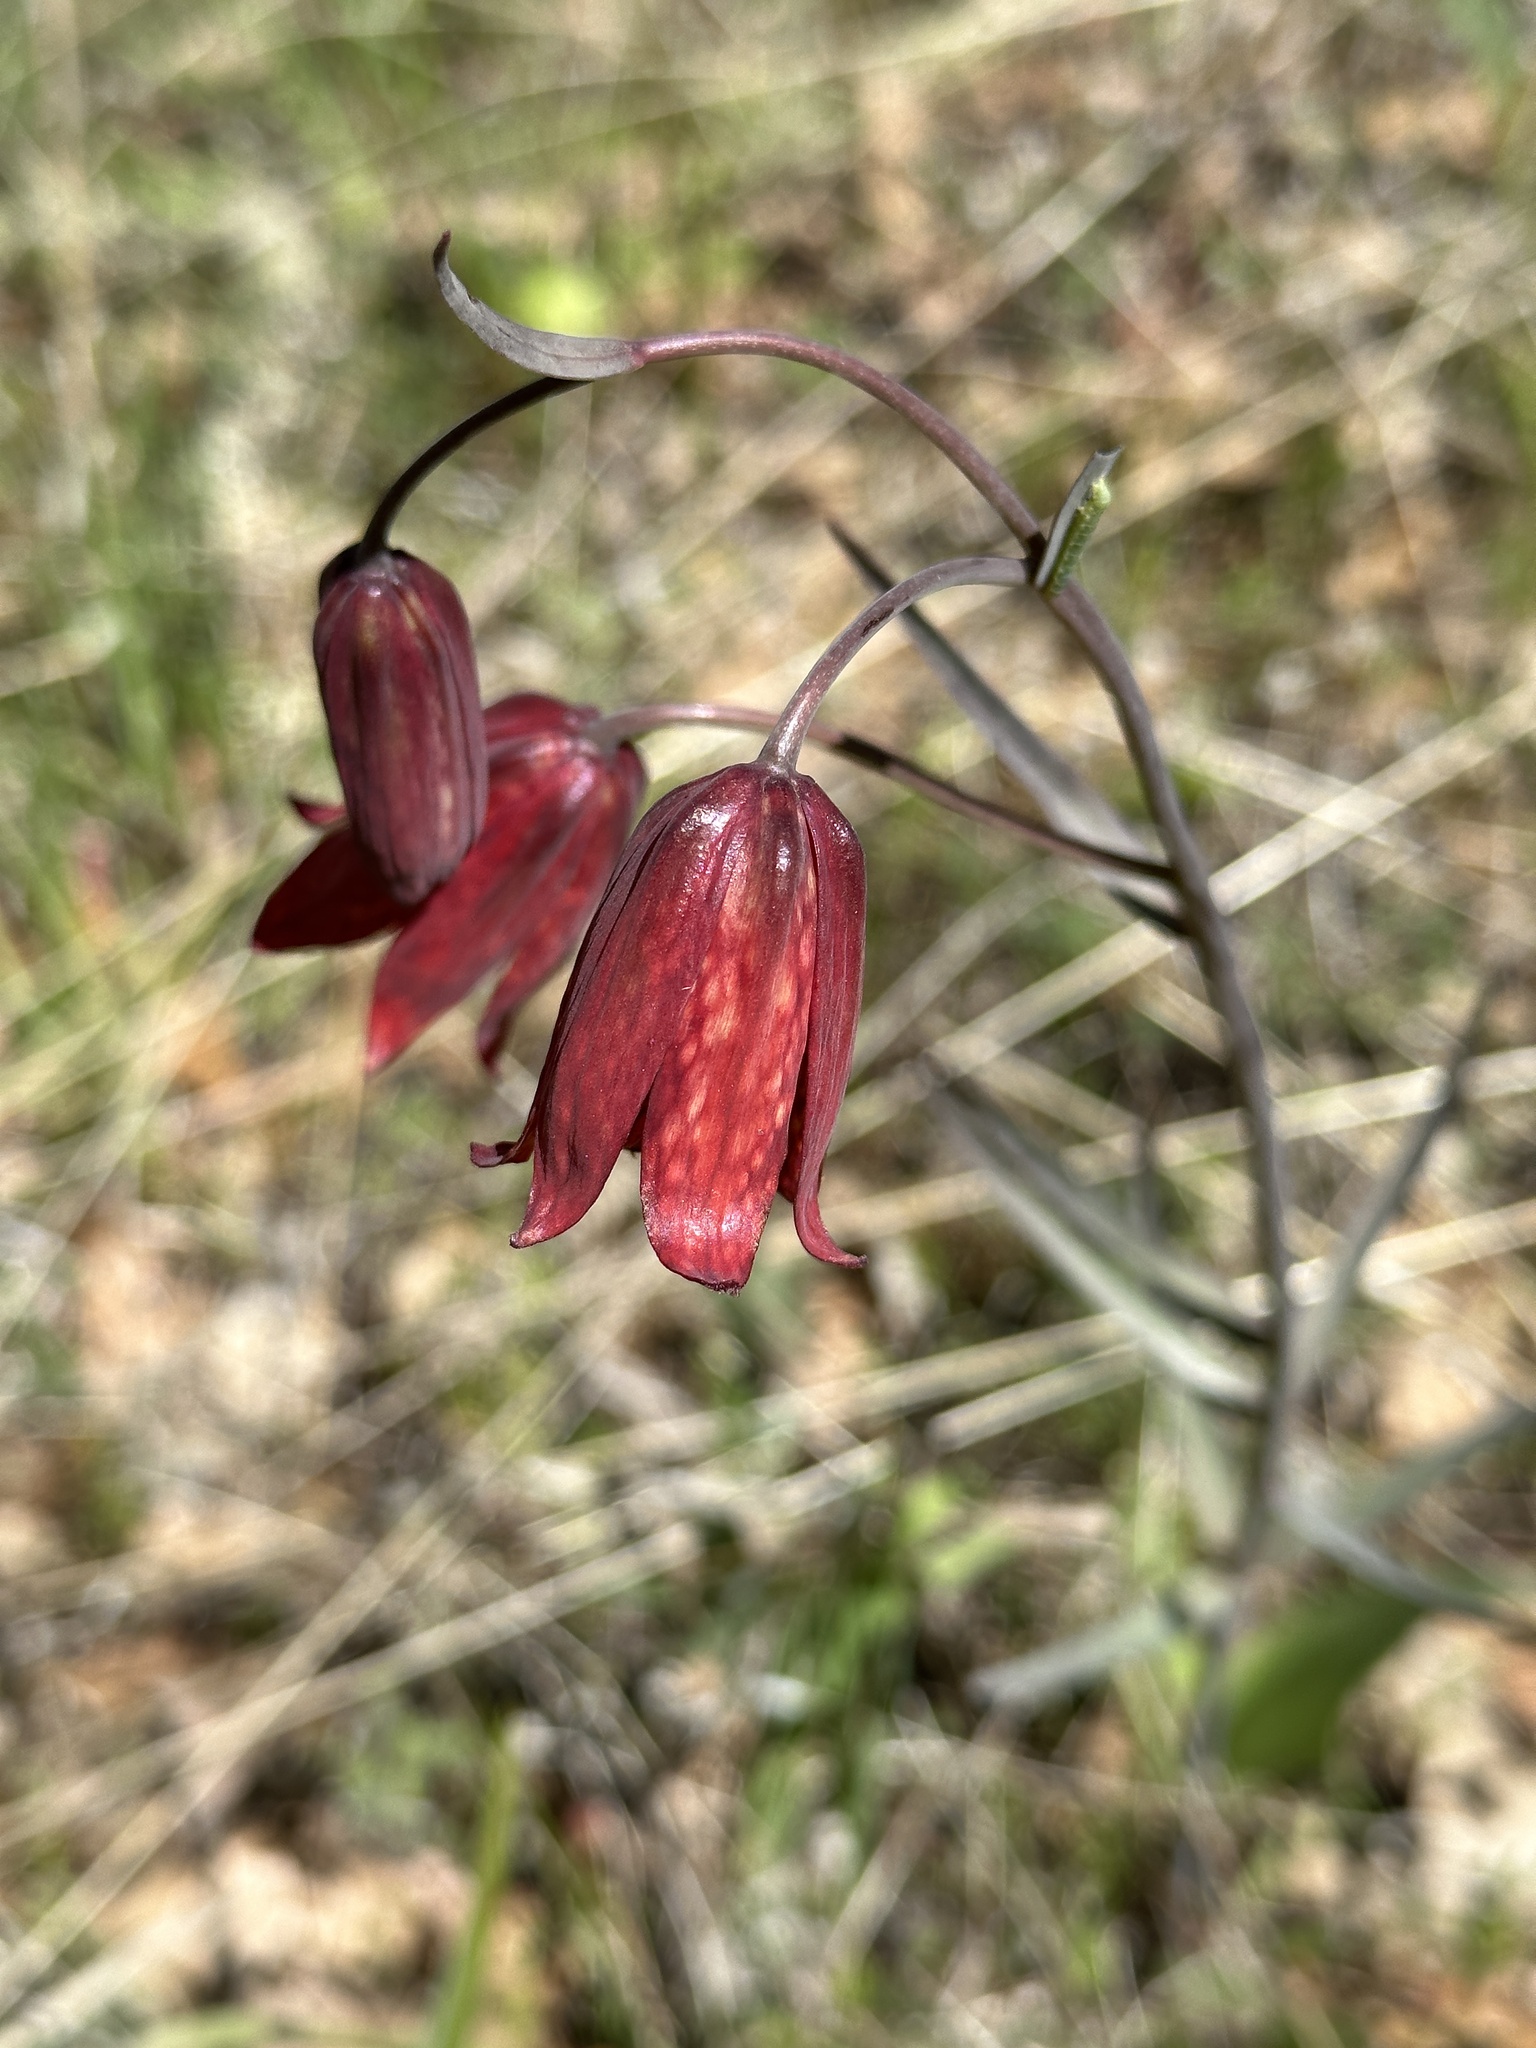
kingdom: Plantae
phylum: Tracheophyta
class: Liliopsida
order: Liliales
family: Liliaceae
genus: Fritillaria
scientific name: Fritillaria gentneri
